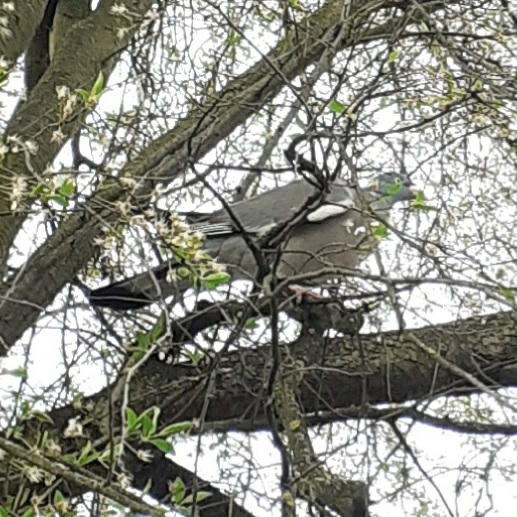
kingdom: Animalia
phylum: Chordata
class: Aves
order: Columbiformes
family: Columbidae
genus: Columba
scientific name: Columba palumbus
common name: Common wood pigeon
